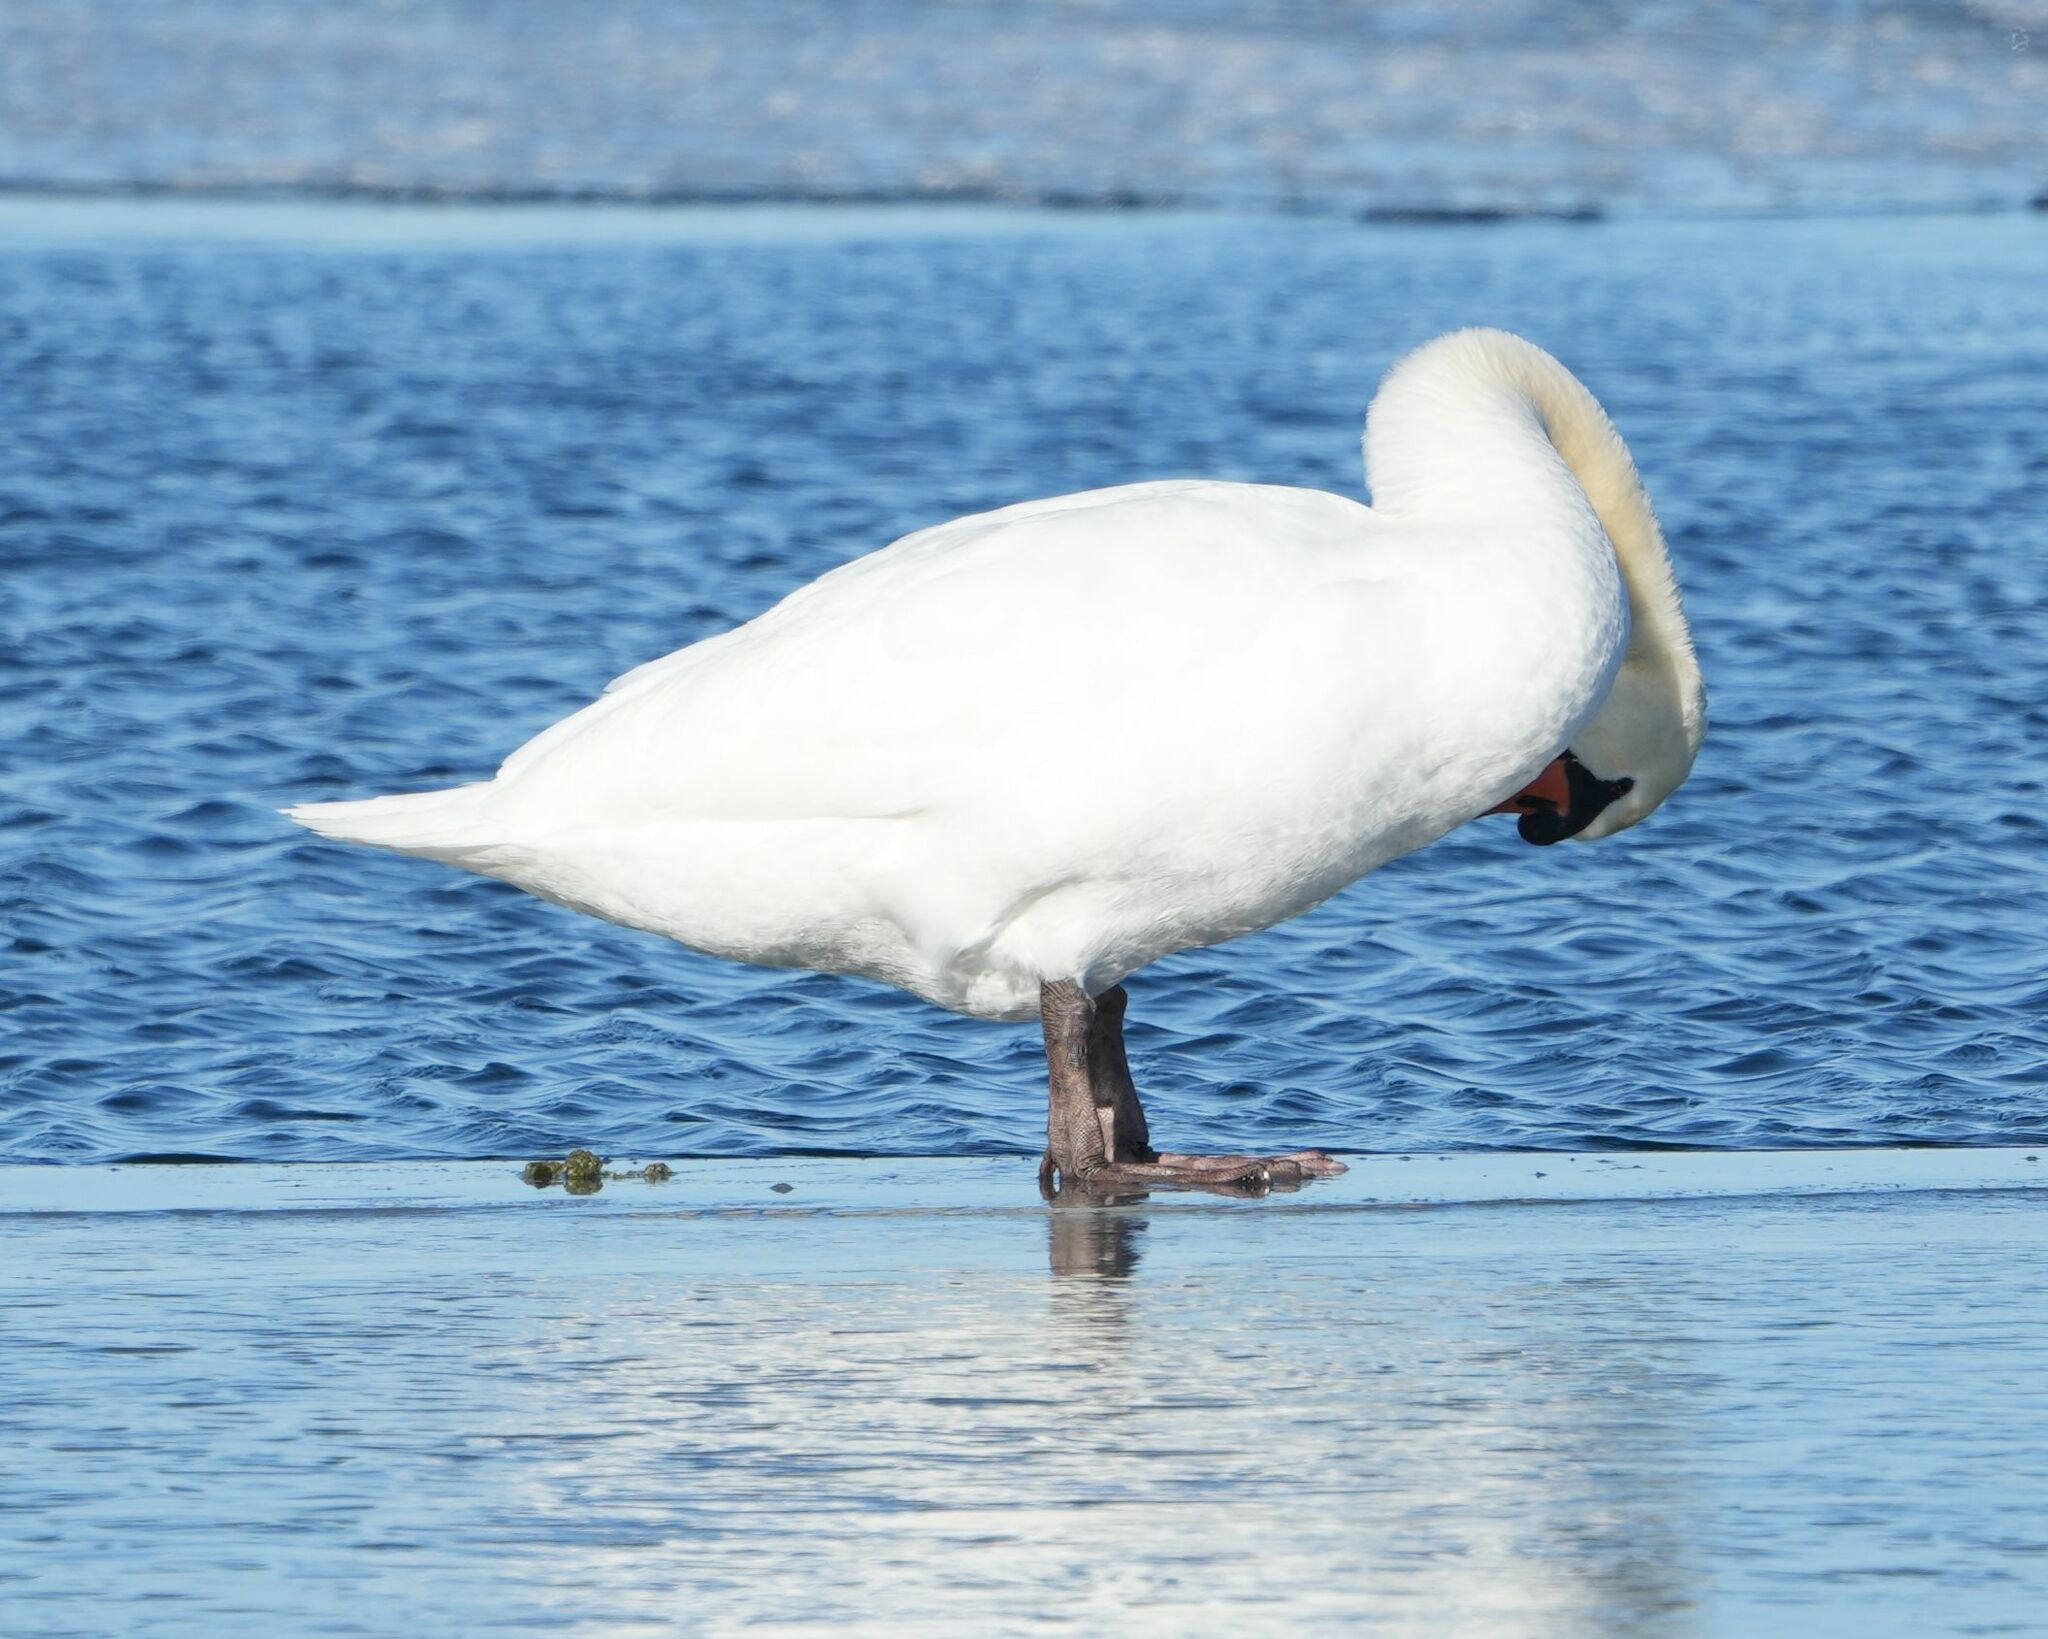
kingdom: Animalia
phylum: Chordata
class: Aves
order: Anseriformes
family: Anatidae
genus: Cygnus
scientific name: Cygnus olor
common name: Mute swan
